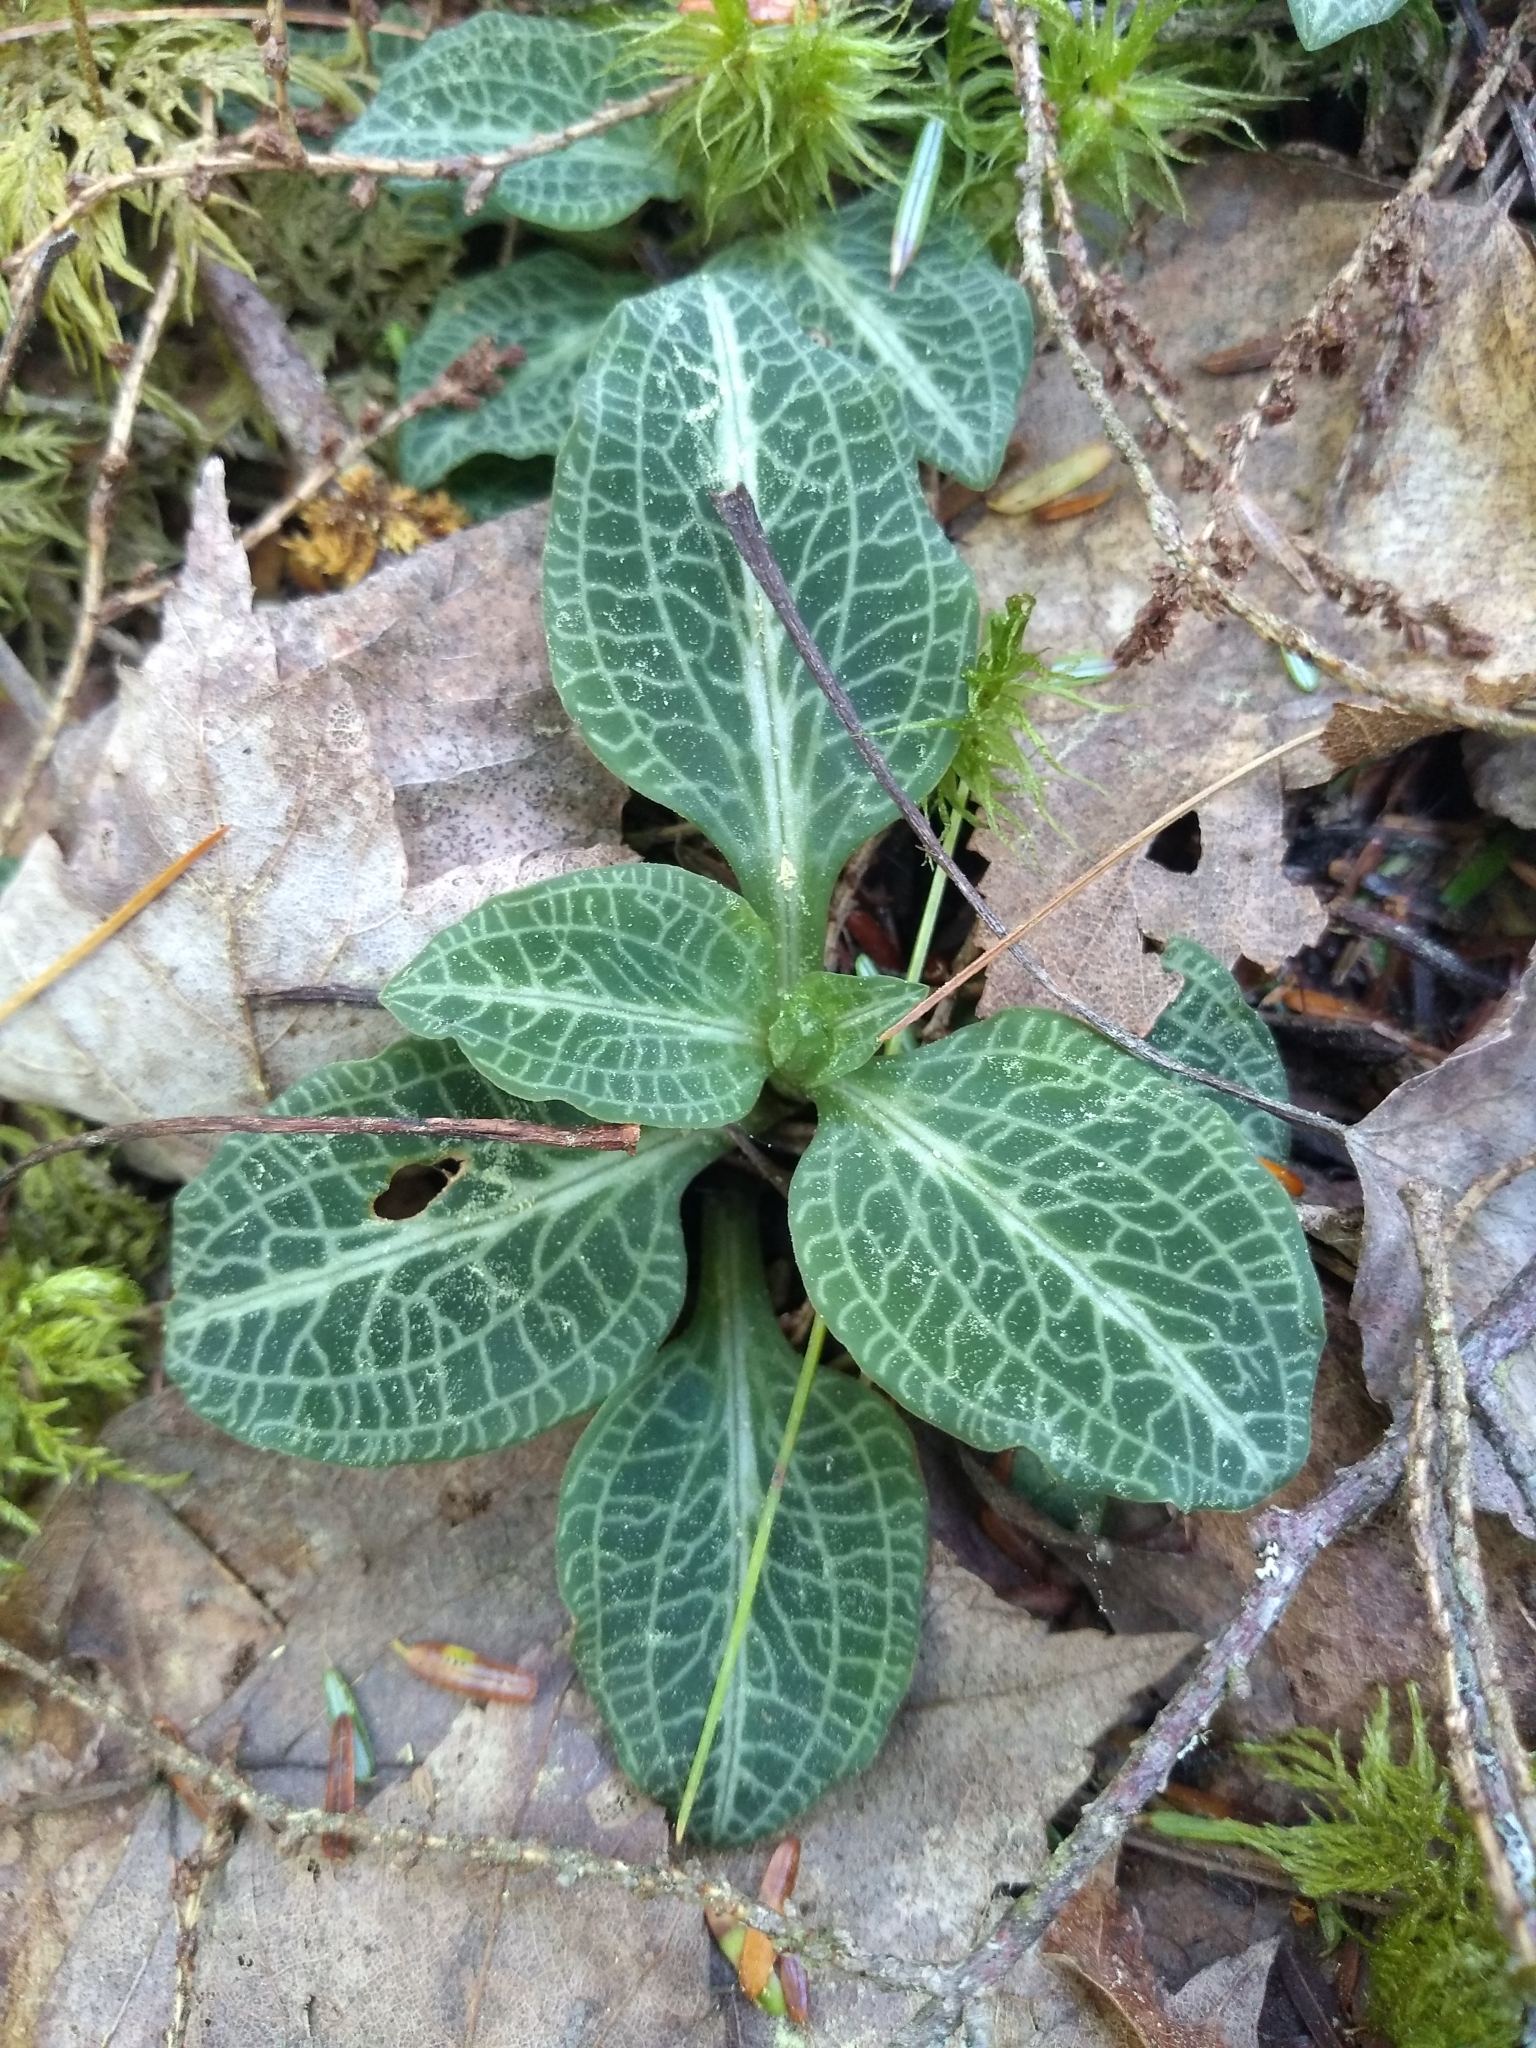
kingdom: Plantae
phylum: Tracheophyta
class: Liliopsida
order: Asparagales
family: Orchidaceae
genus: Goodyera
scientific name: Goodyera pubescens
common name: Downy rattlesnake-plantain
